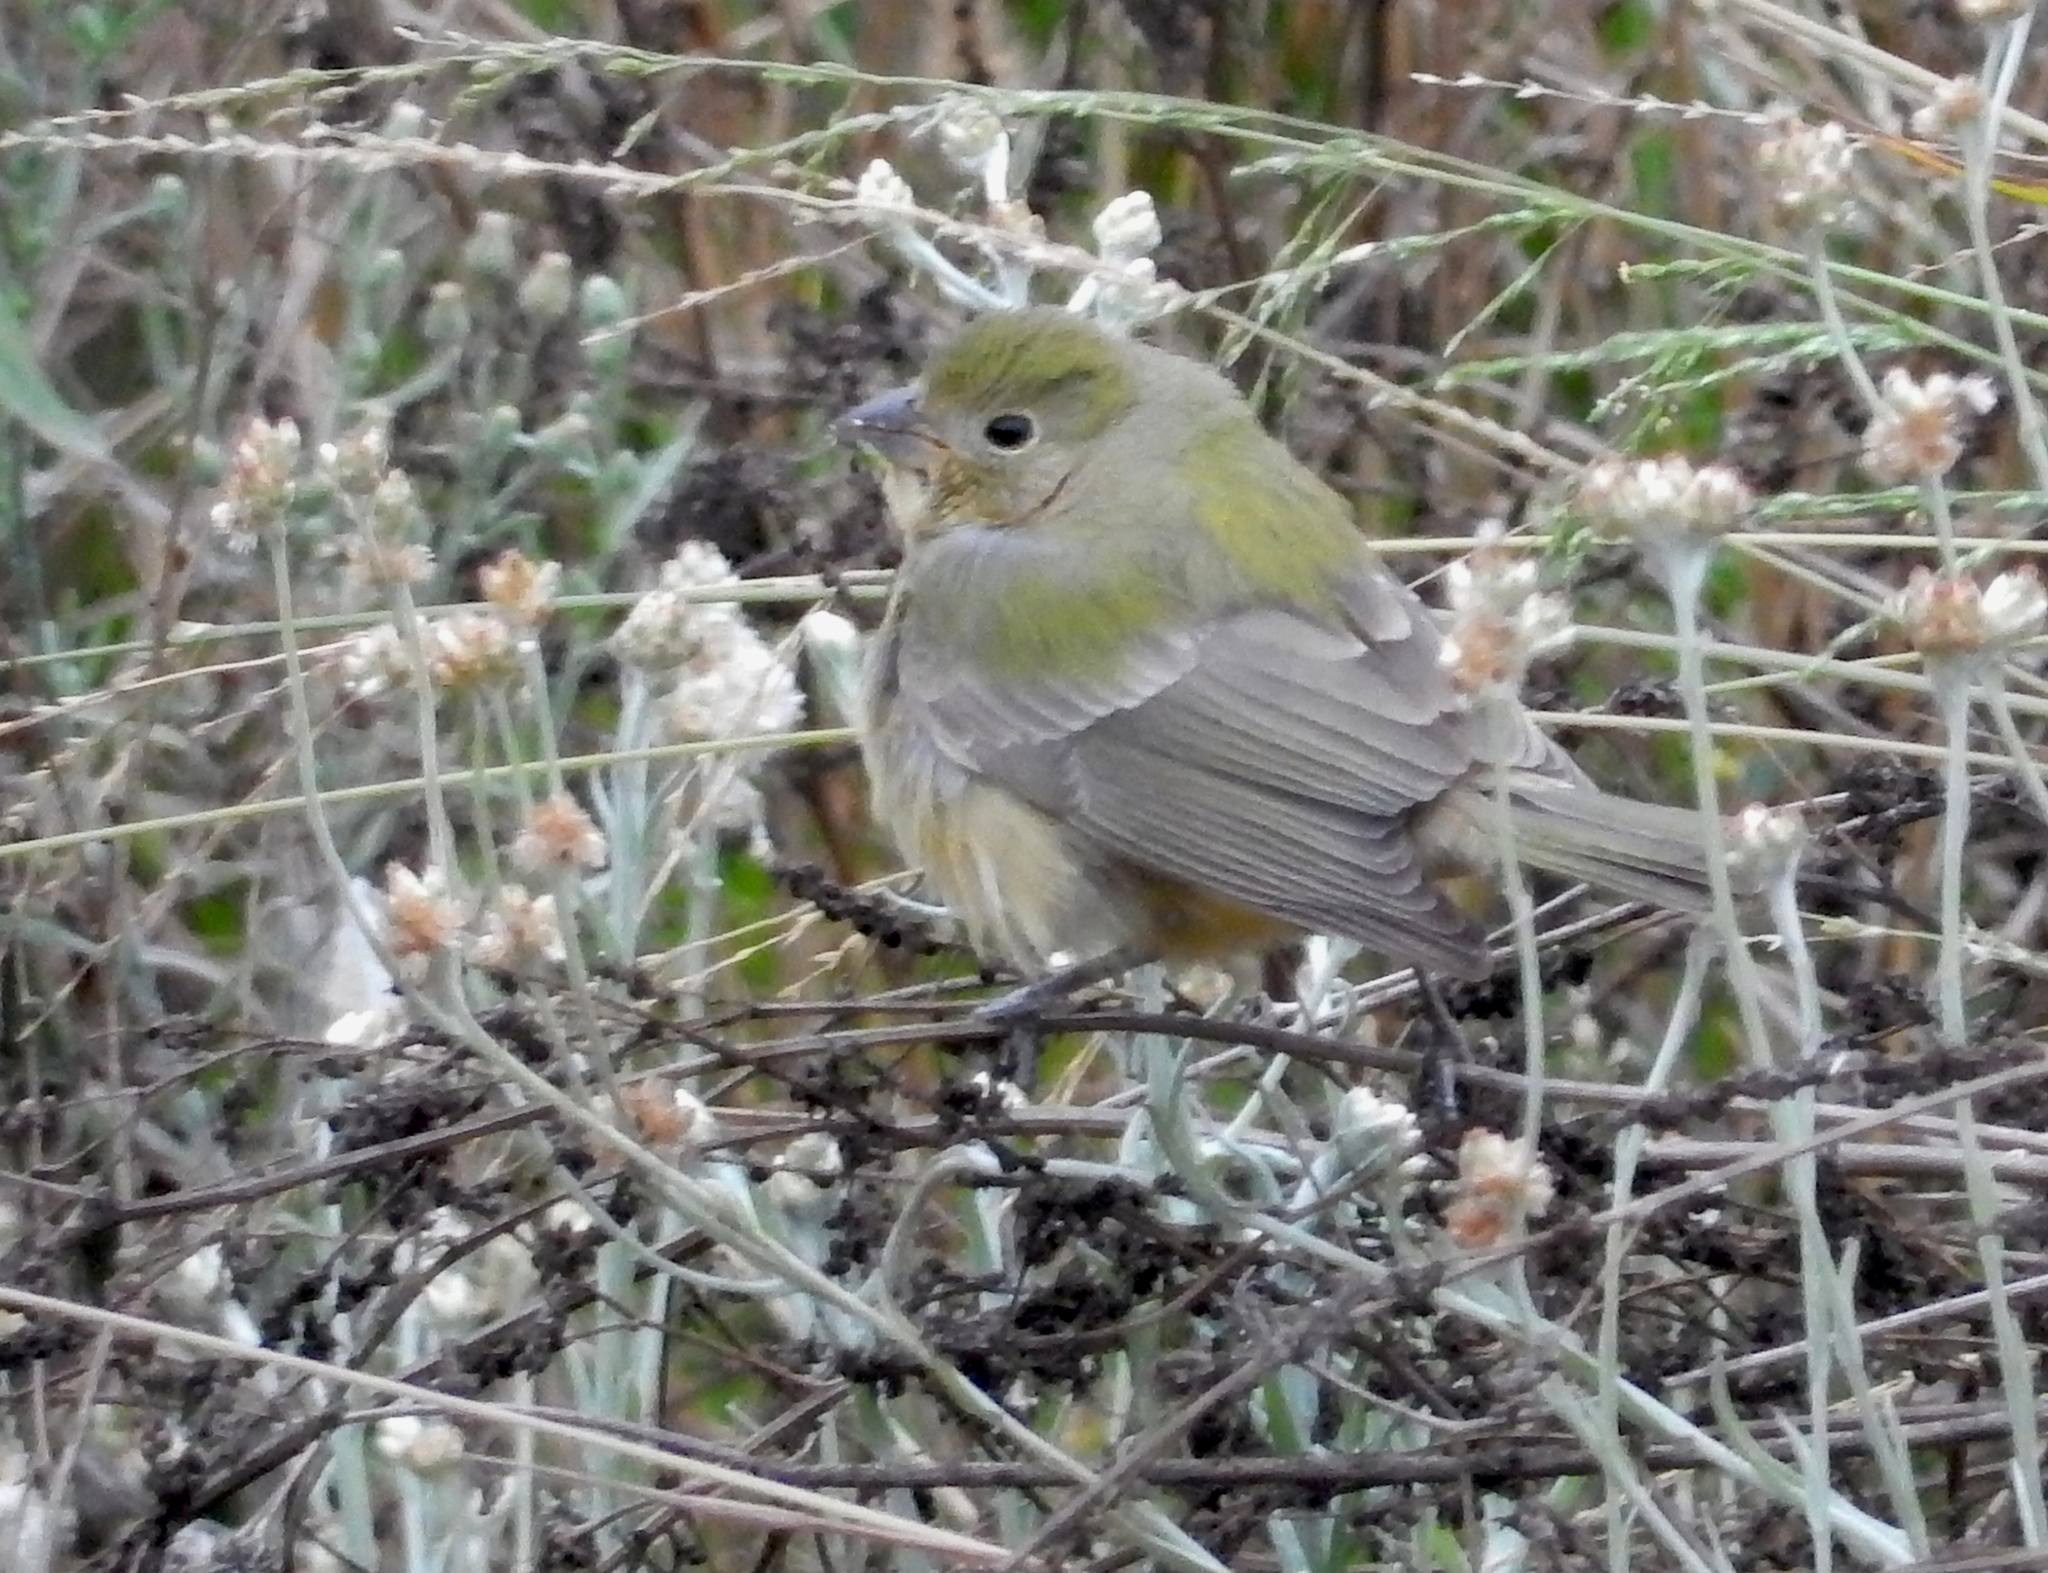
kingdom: Animalia
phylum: Chordata
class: Aves
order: Passeriformes
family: Cardinalidae
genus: Passerina
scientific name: Passerina ciris
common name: Painted bunting
